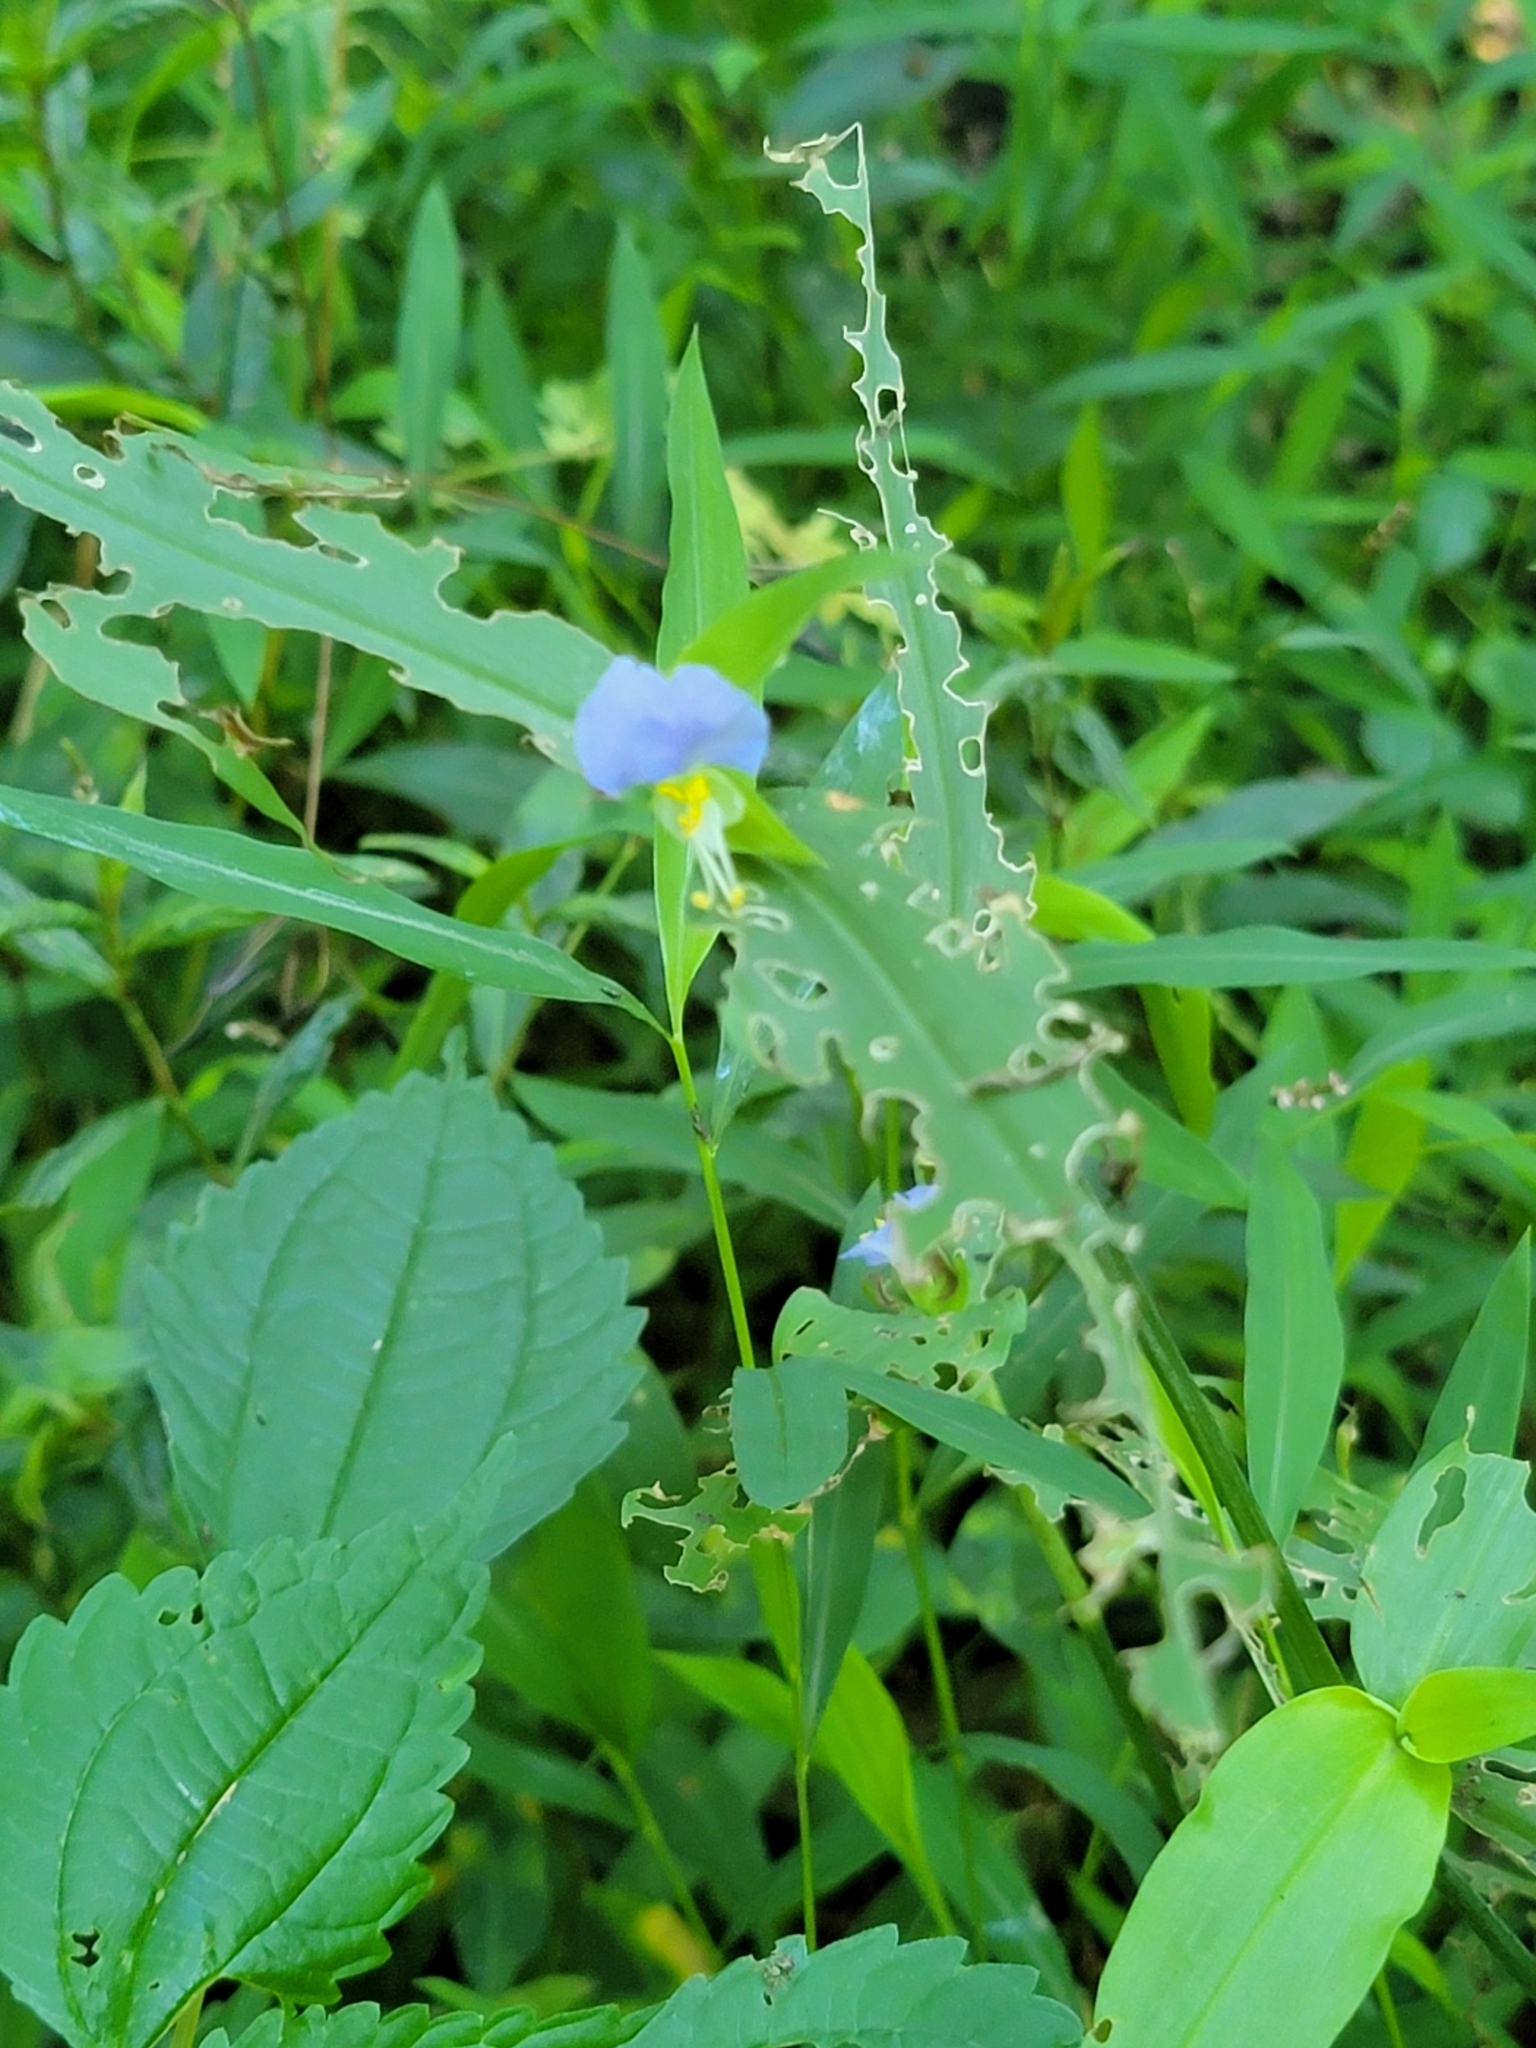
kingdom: Plantae
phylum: Tracheophyta
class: Liliopsida
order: Commelinales
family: Commelinaceae
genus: Commelina
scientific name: Commelina communis
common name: Asiatic dayflower
